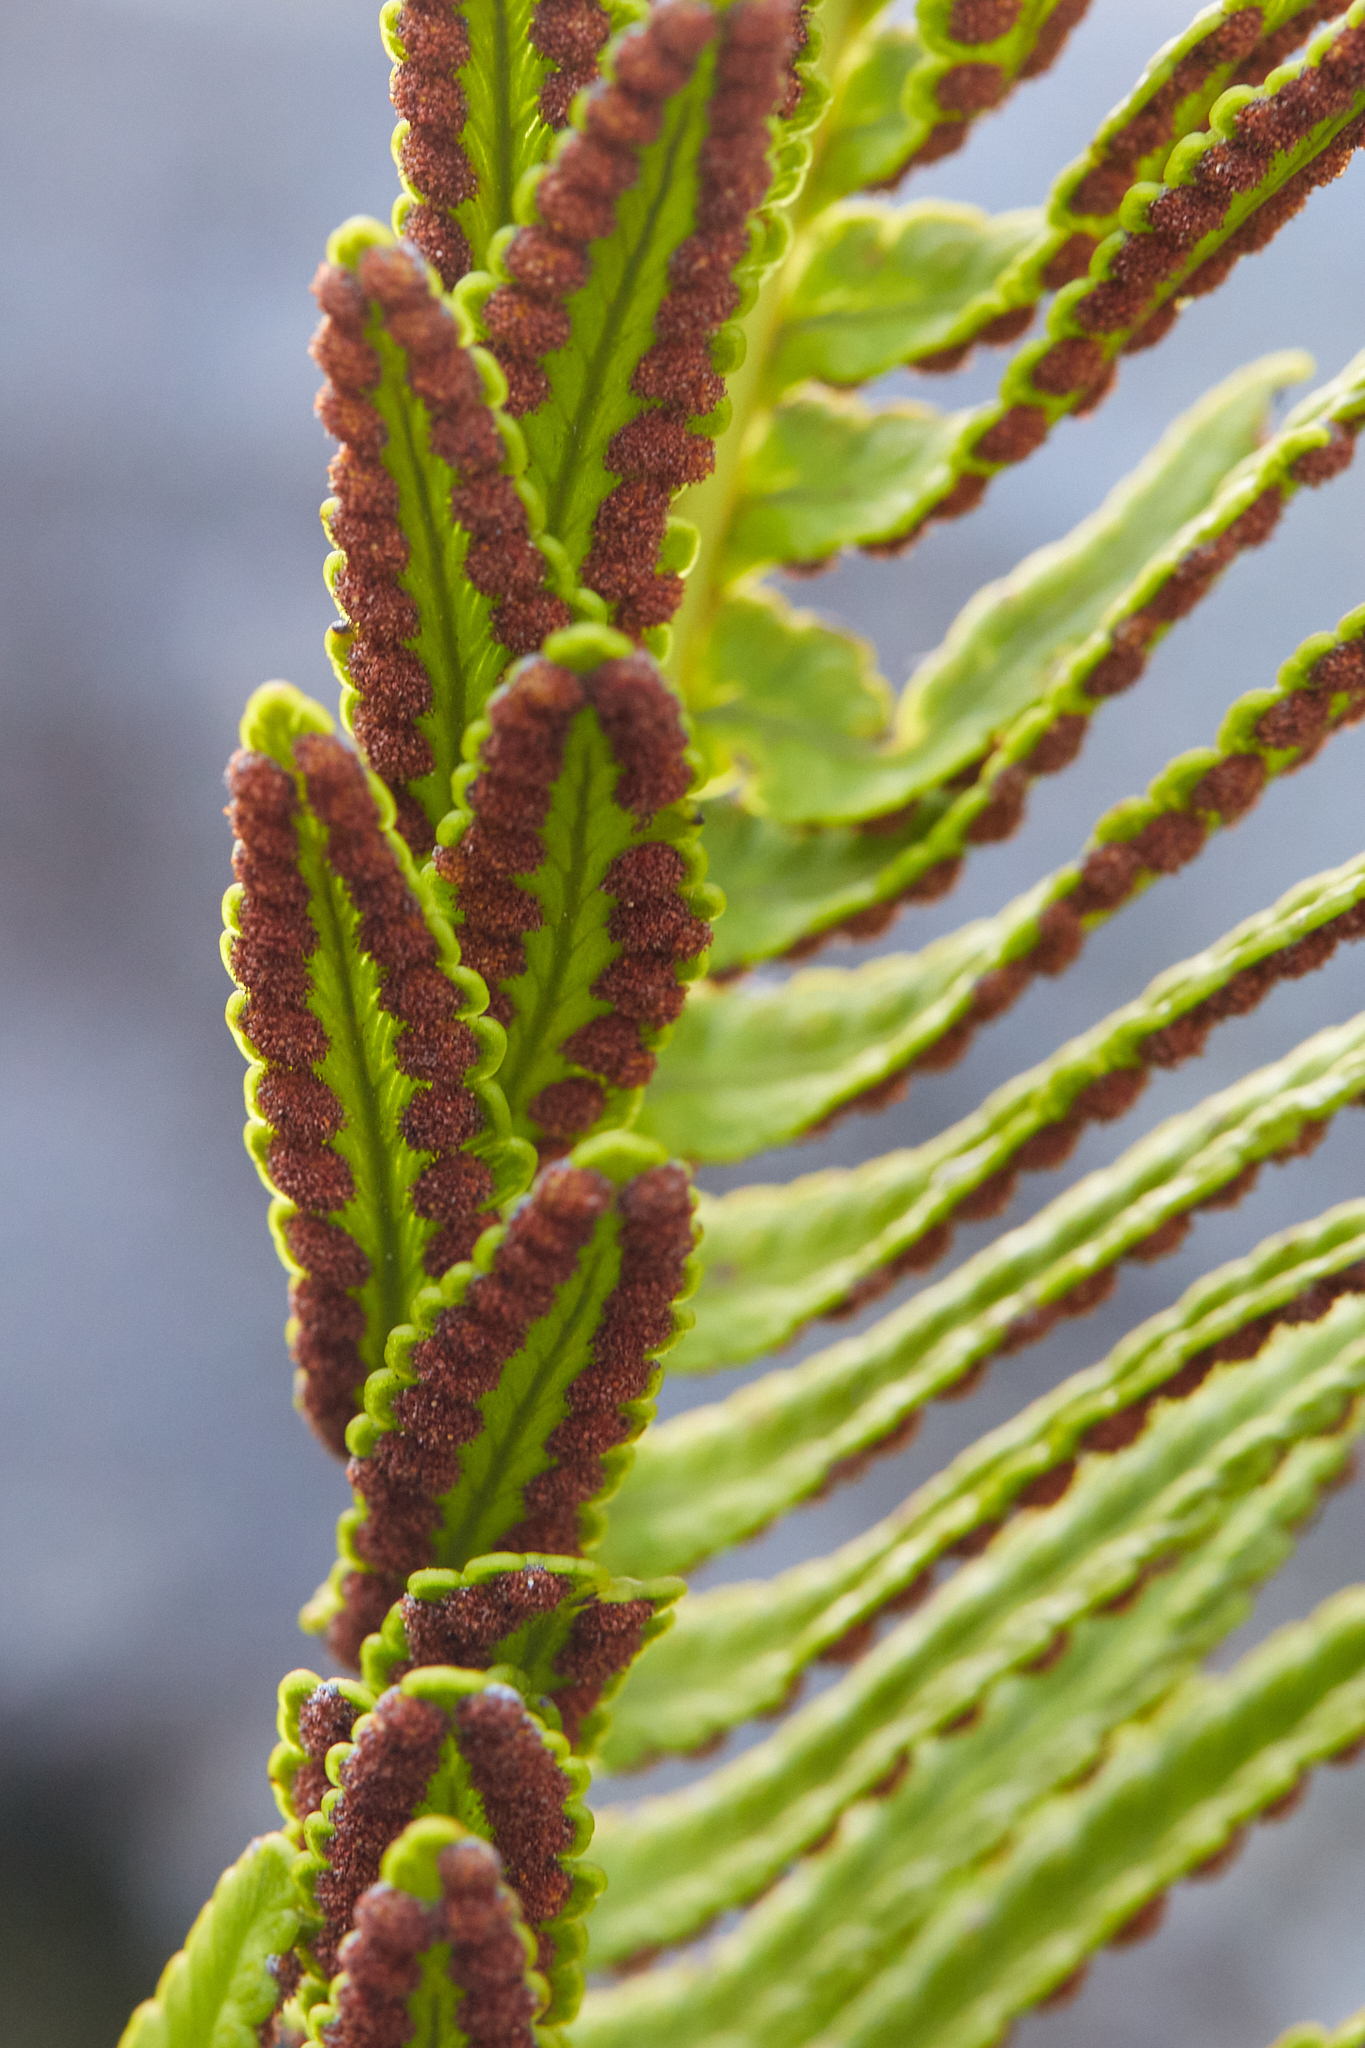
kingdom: Plantae
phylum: Tracheophyta
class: Polypodiopsida
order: Polypodiales
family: Polypodiaceae
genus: Polypodium
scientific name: Polypodium pellucidum
